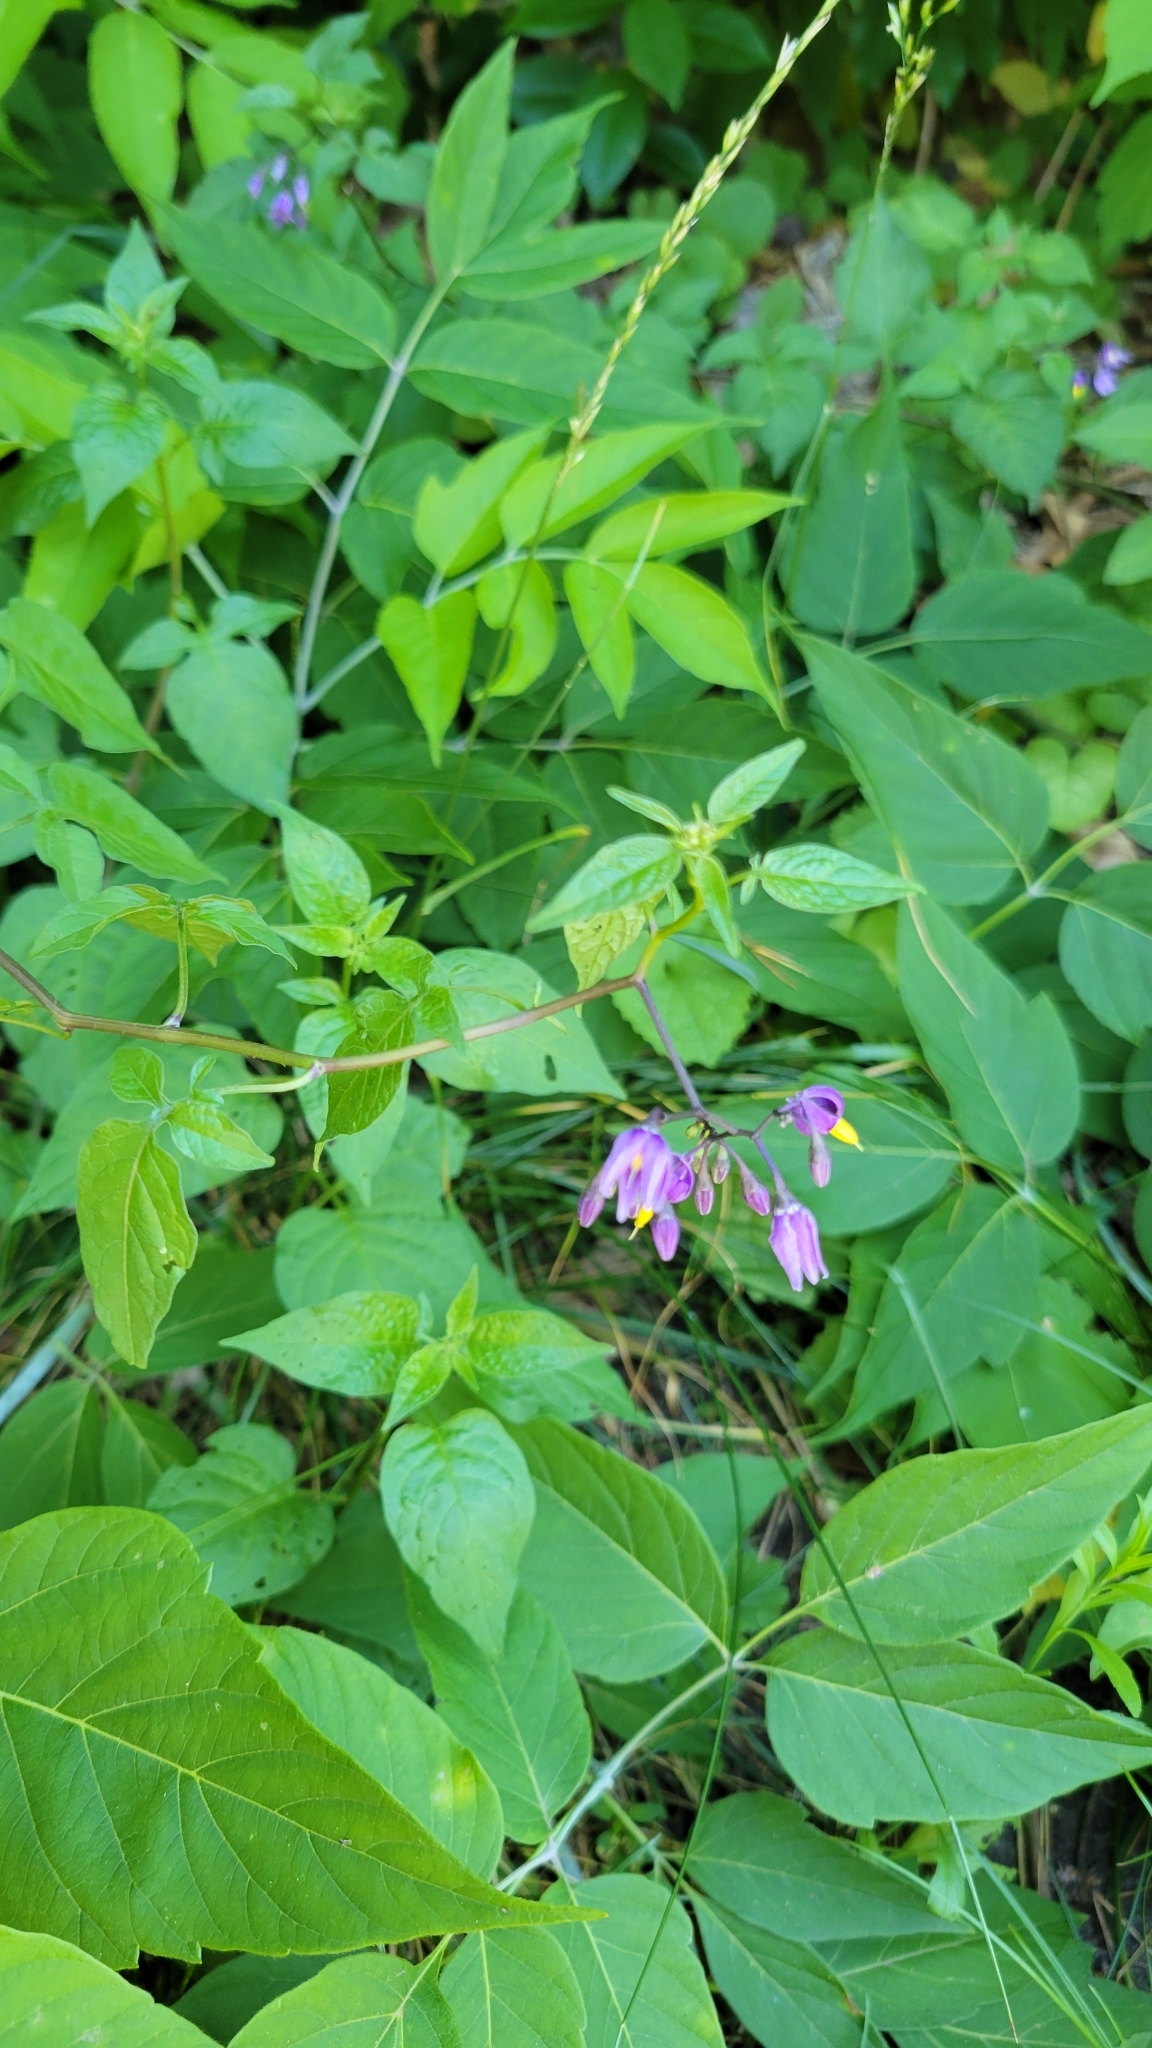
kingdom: Plantae
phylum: Tracheophyta
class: Magnoliopsida
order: Solanales
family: Solanaceae
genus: Solanum
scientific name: Solanum dulcamara
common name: Climbing nightshade
